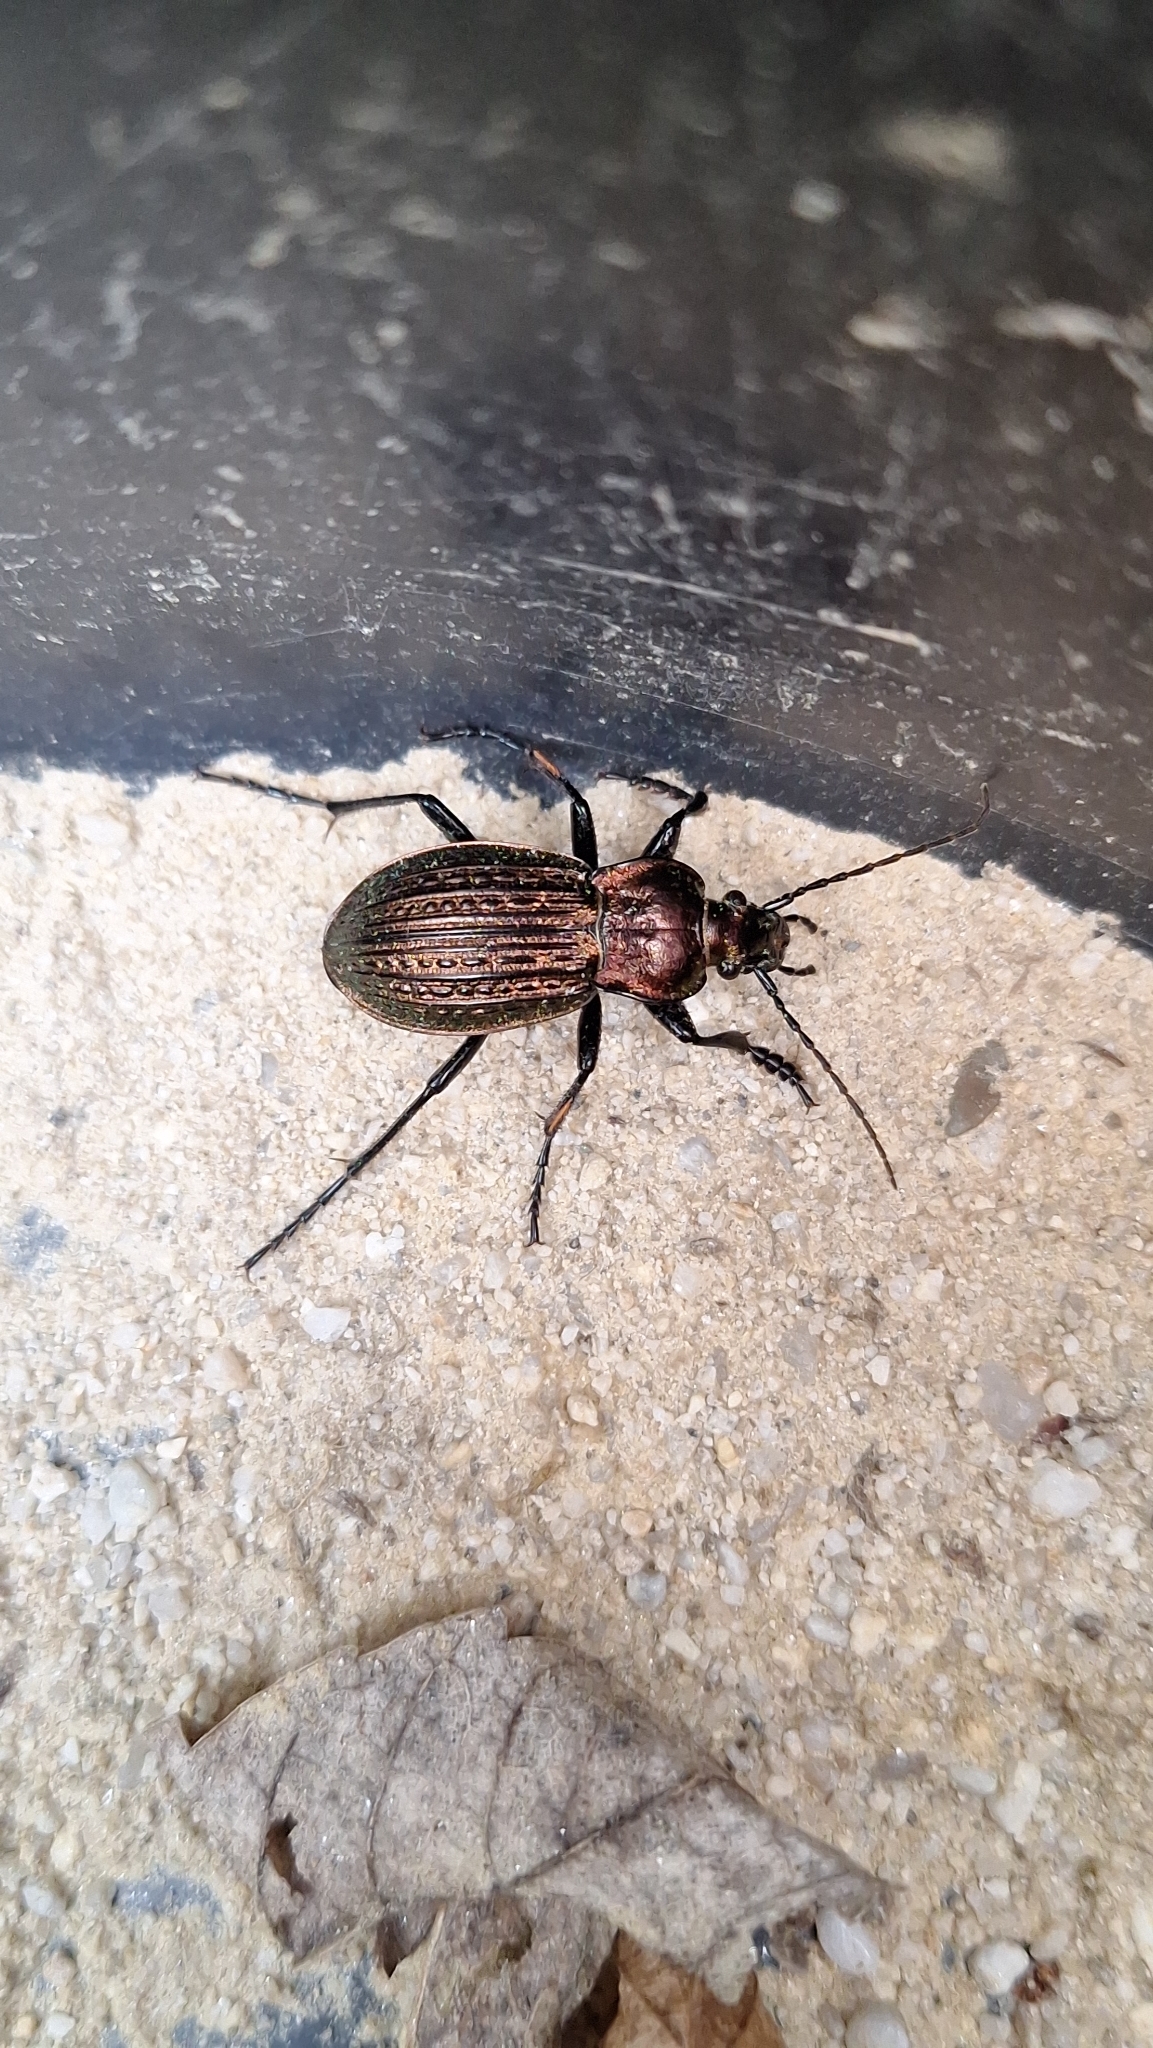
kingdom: Animalia
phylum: Arthropoda
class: Insecta
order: Coleoptera
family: Carabidae
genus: Carabus
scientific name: Carabus ulrichii
